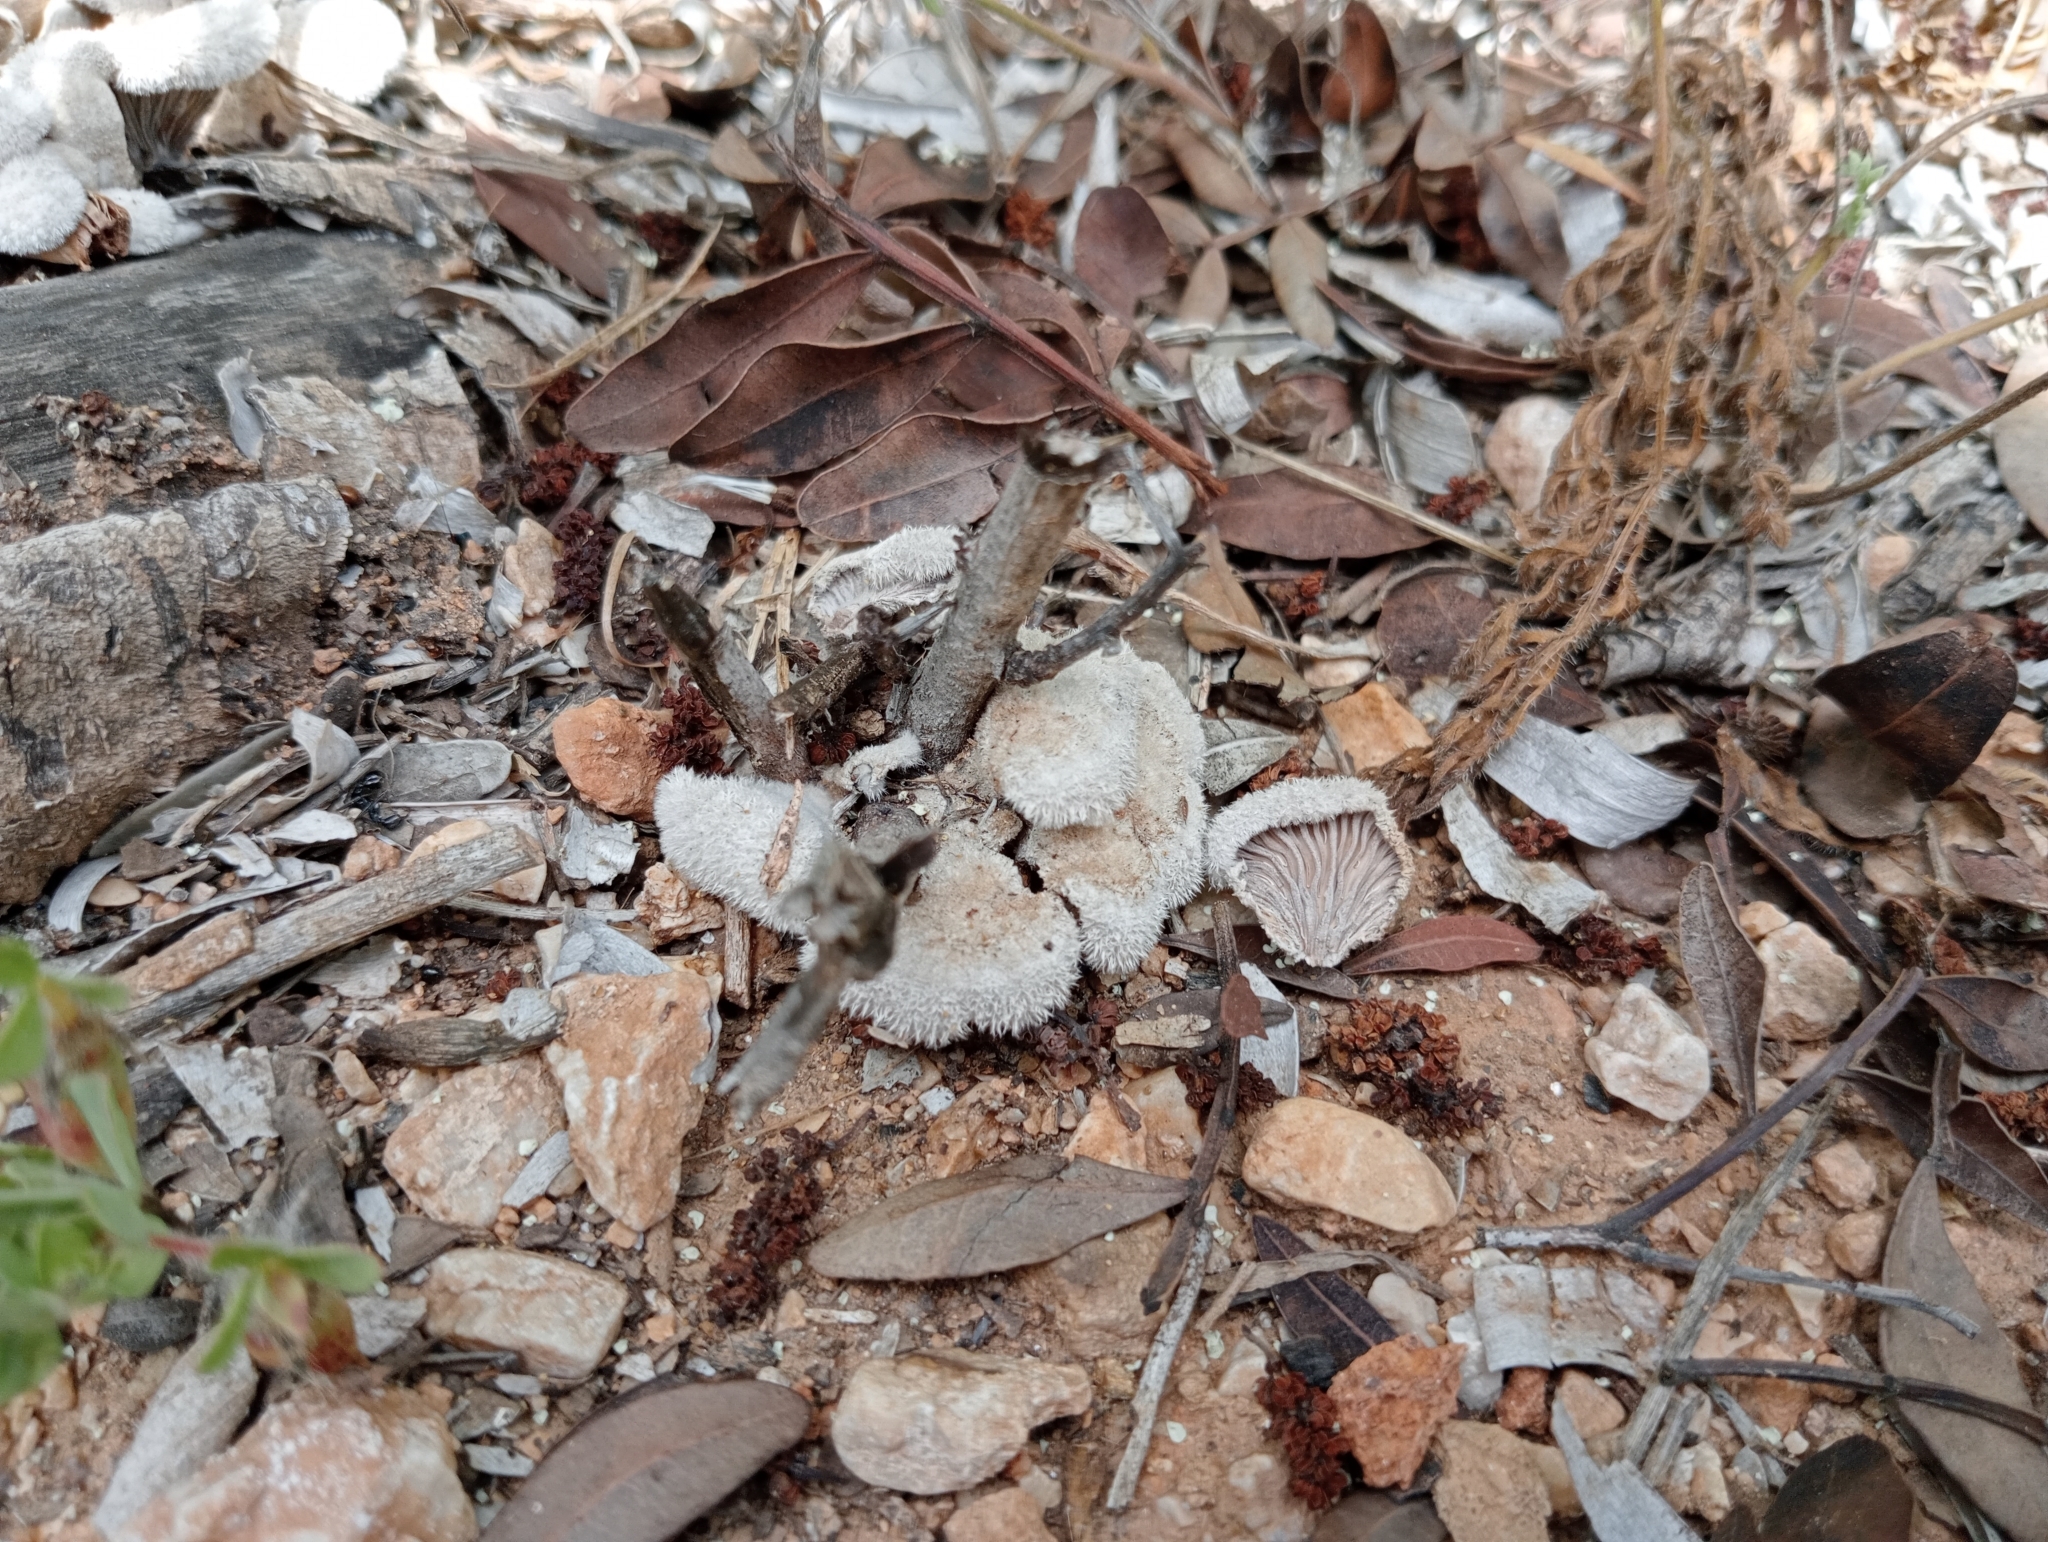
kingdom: Fungi
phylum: Basidiomycota
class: Agaricomycetes
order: Agaricales
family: Schizophyllaceae
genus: Schizophyllum
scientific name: Schizophyllum commune
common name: Common porecrust
